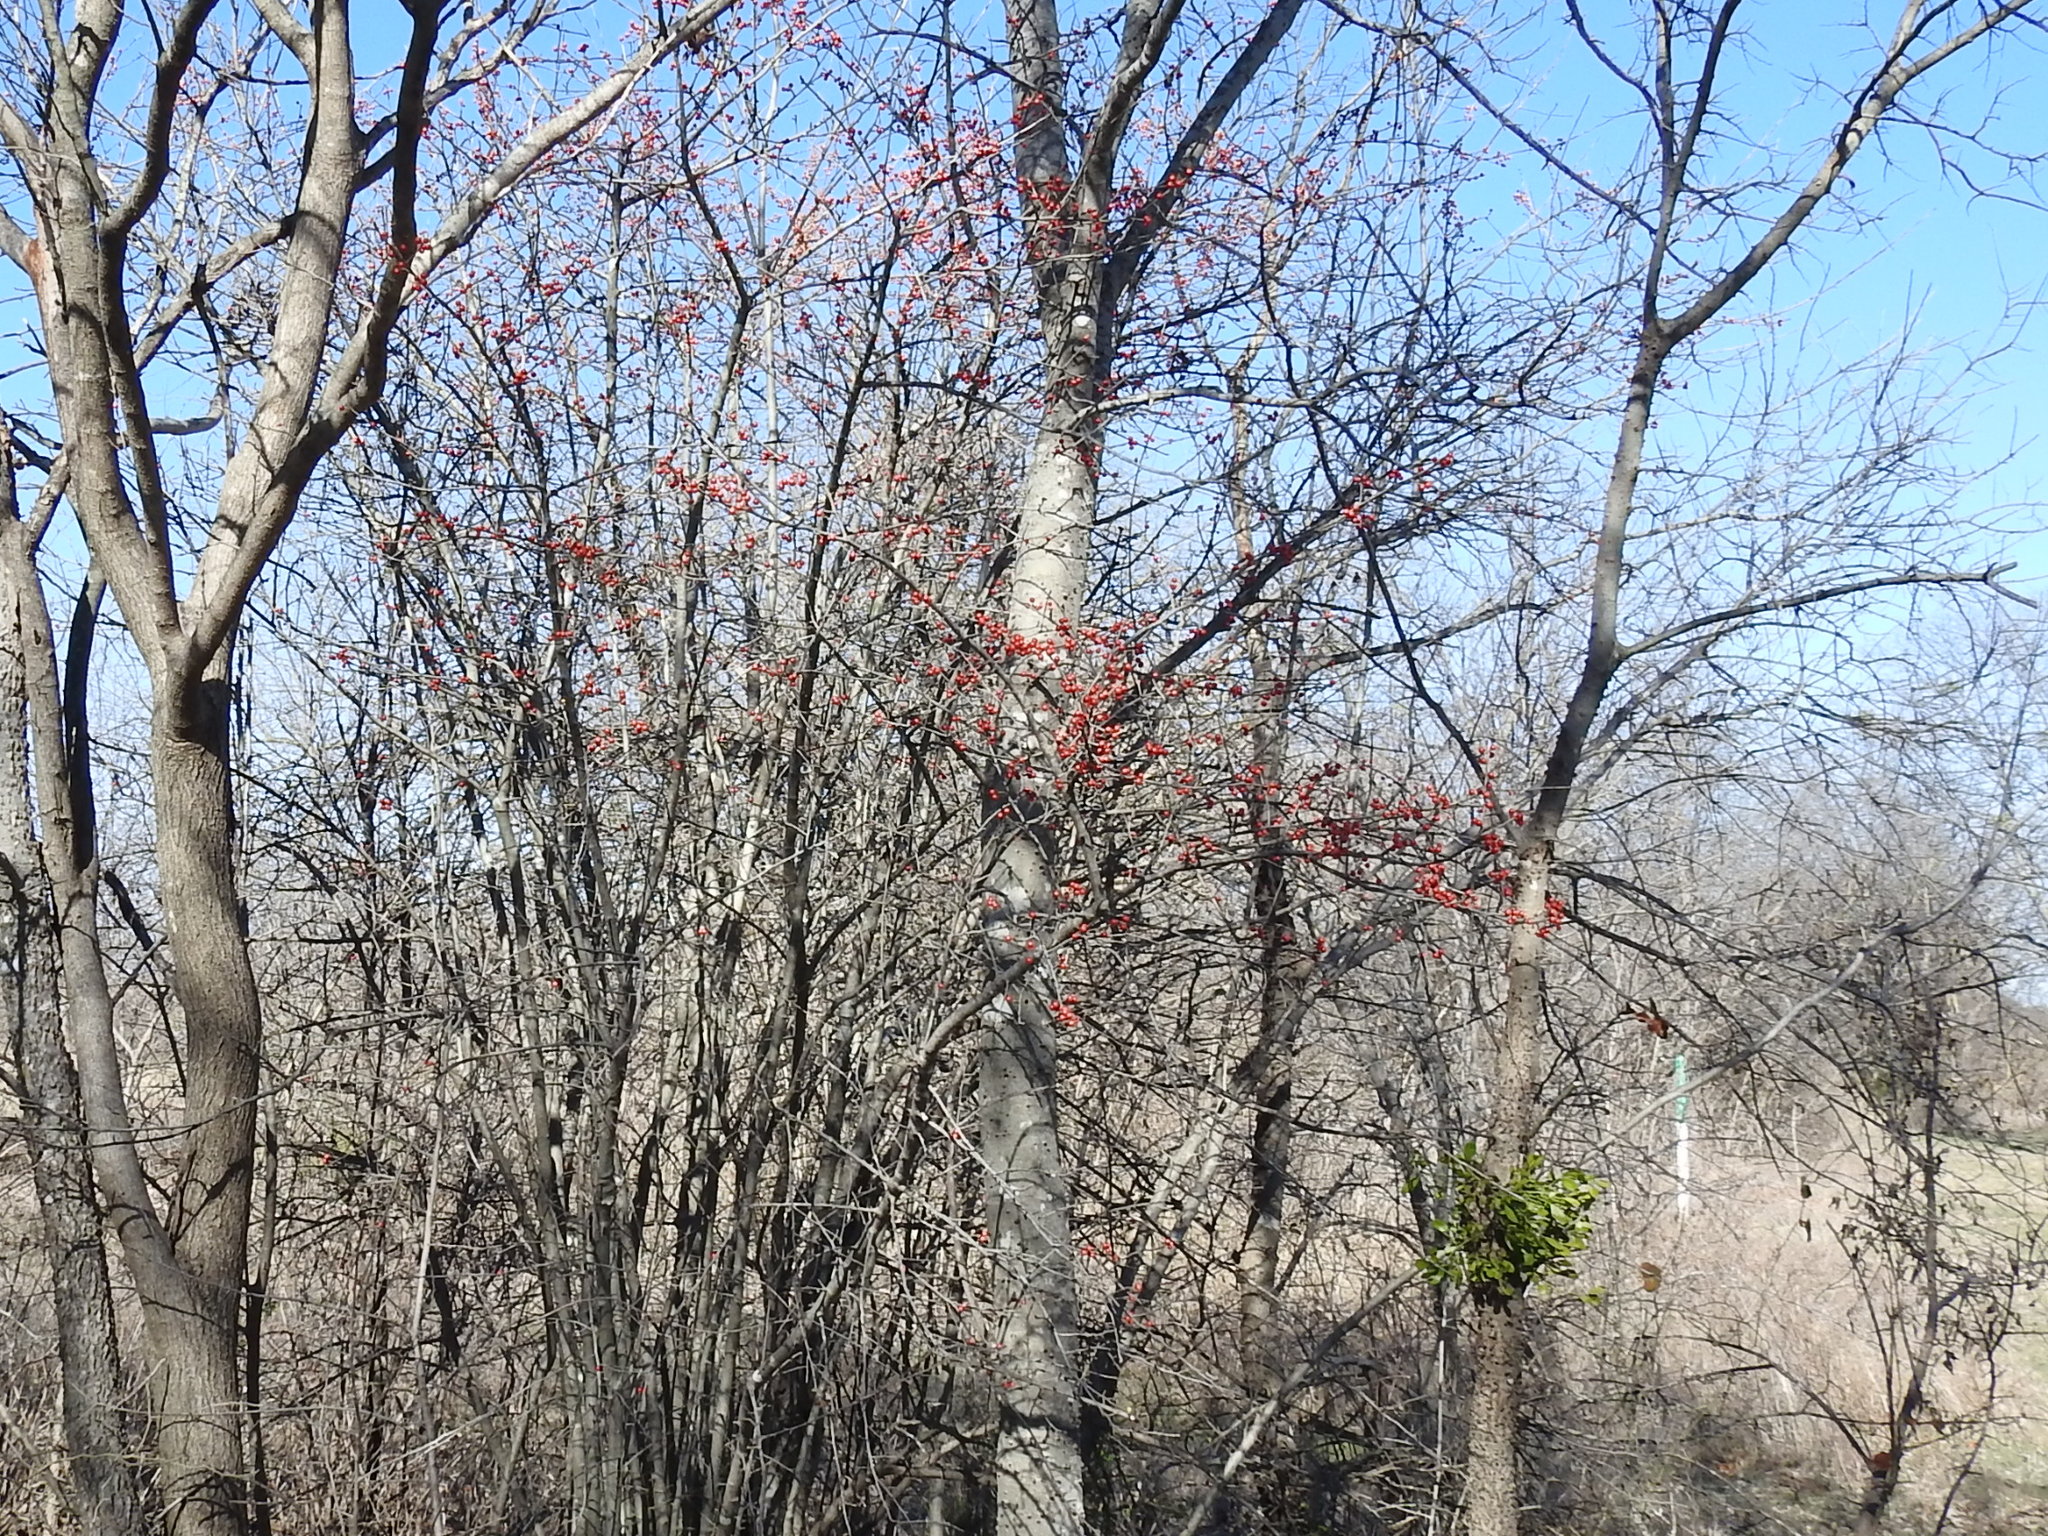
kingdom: Plantae
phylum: Tracheophyta
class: Magnoliopsida
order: Aquifoliales
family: Aquifoliaceae
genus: Ilex
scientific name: Ilex decidua
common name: Possum-haw
